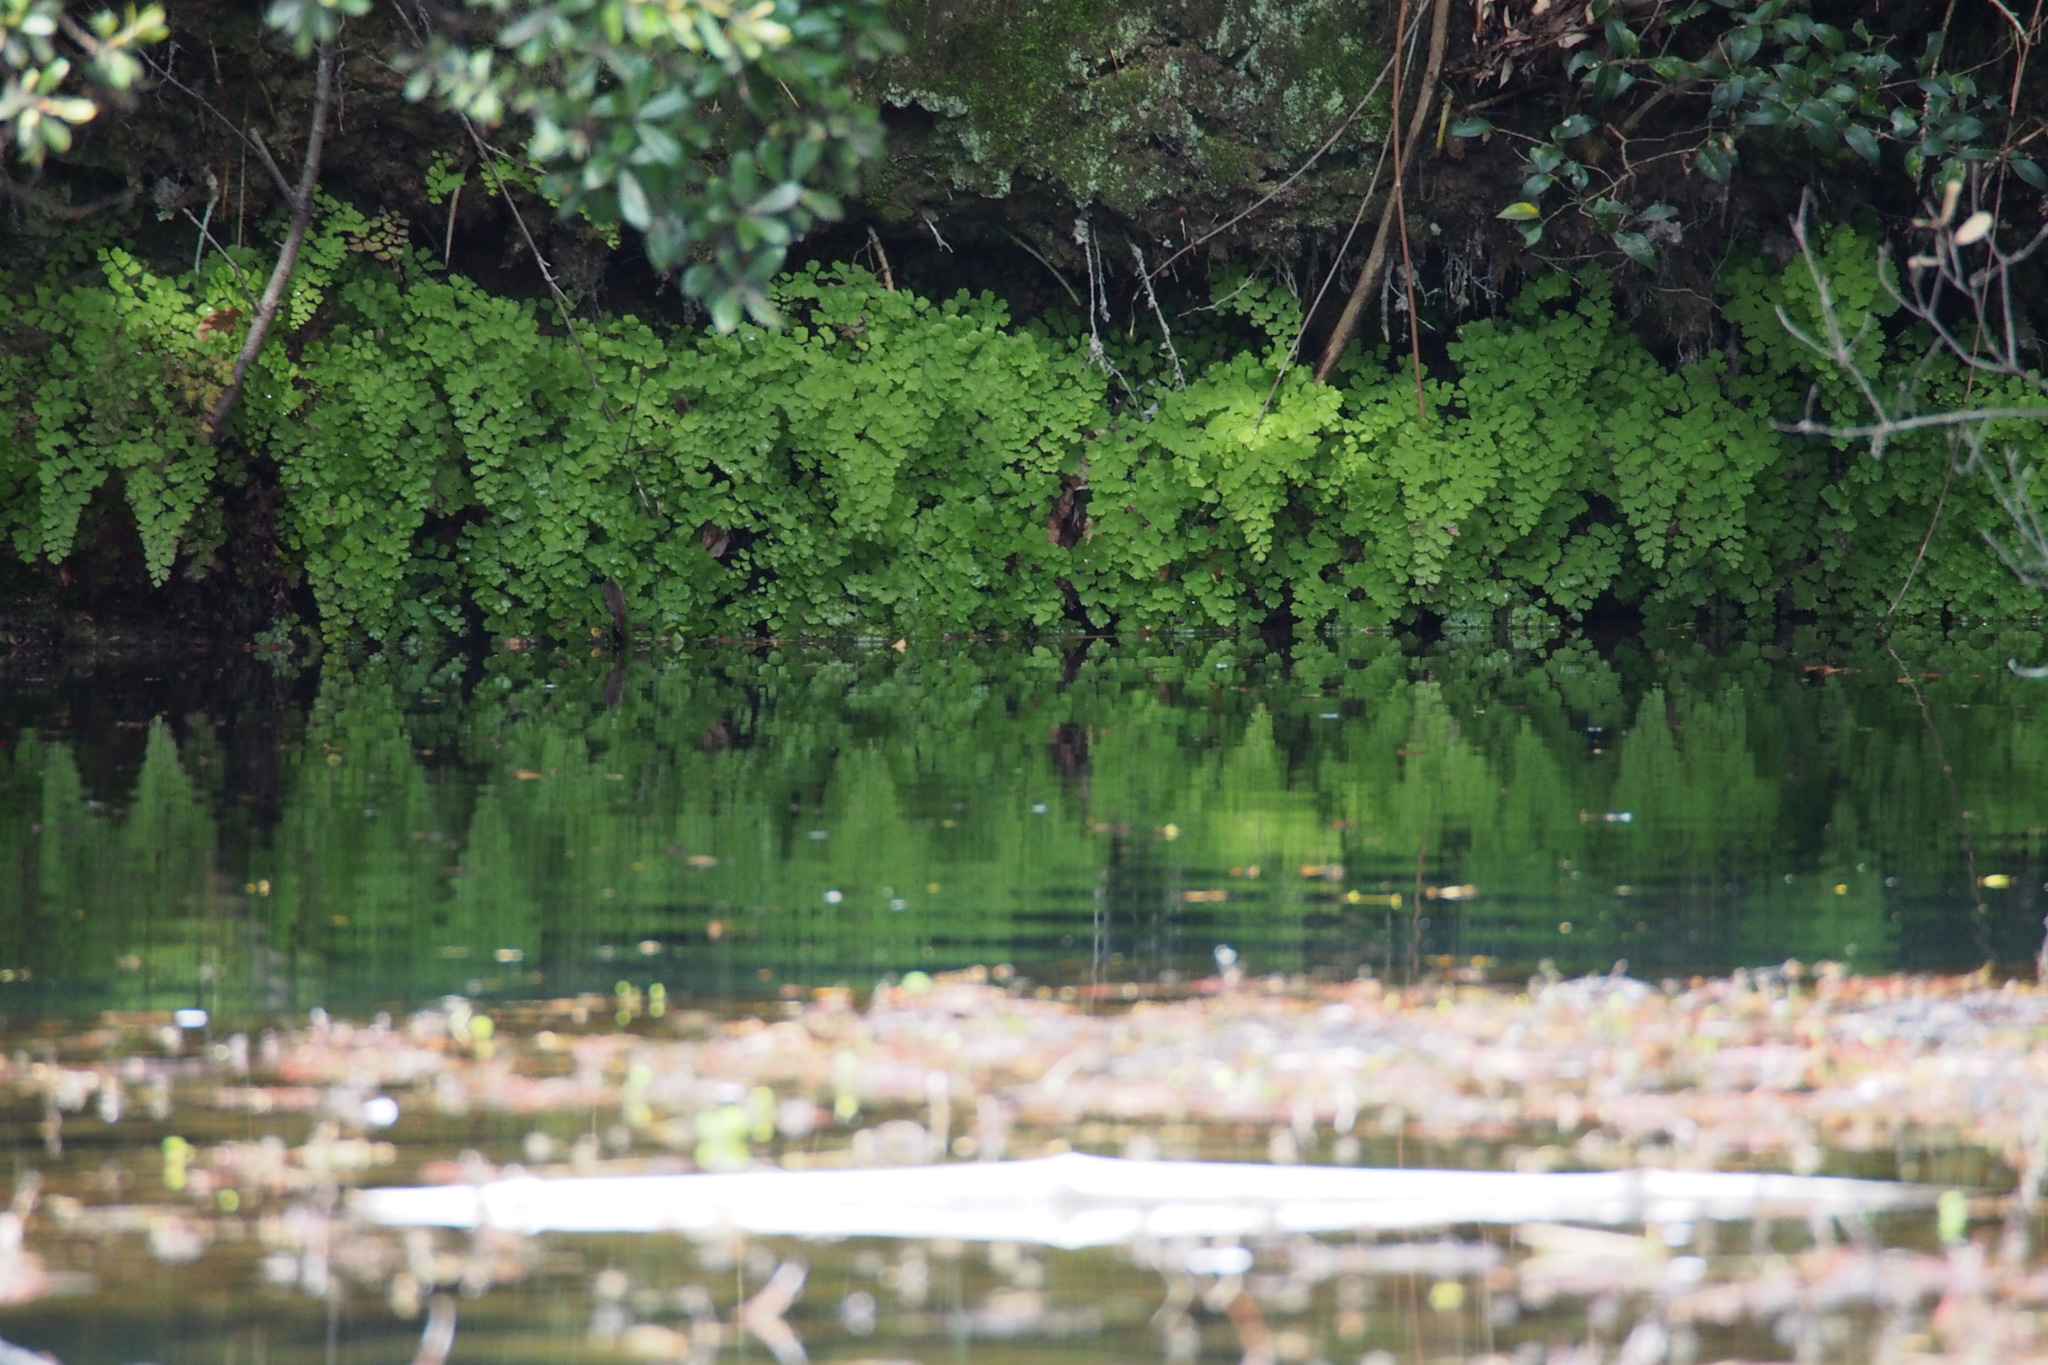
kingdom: Plantae
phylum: Tracheophyta
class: Polypodiopsida
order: Polypodiales
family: Pteridaceae
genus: Adiantum
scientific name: Adiantum capillus-veneris
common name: Maidenhair fern
